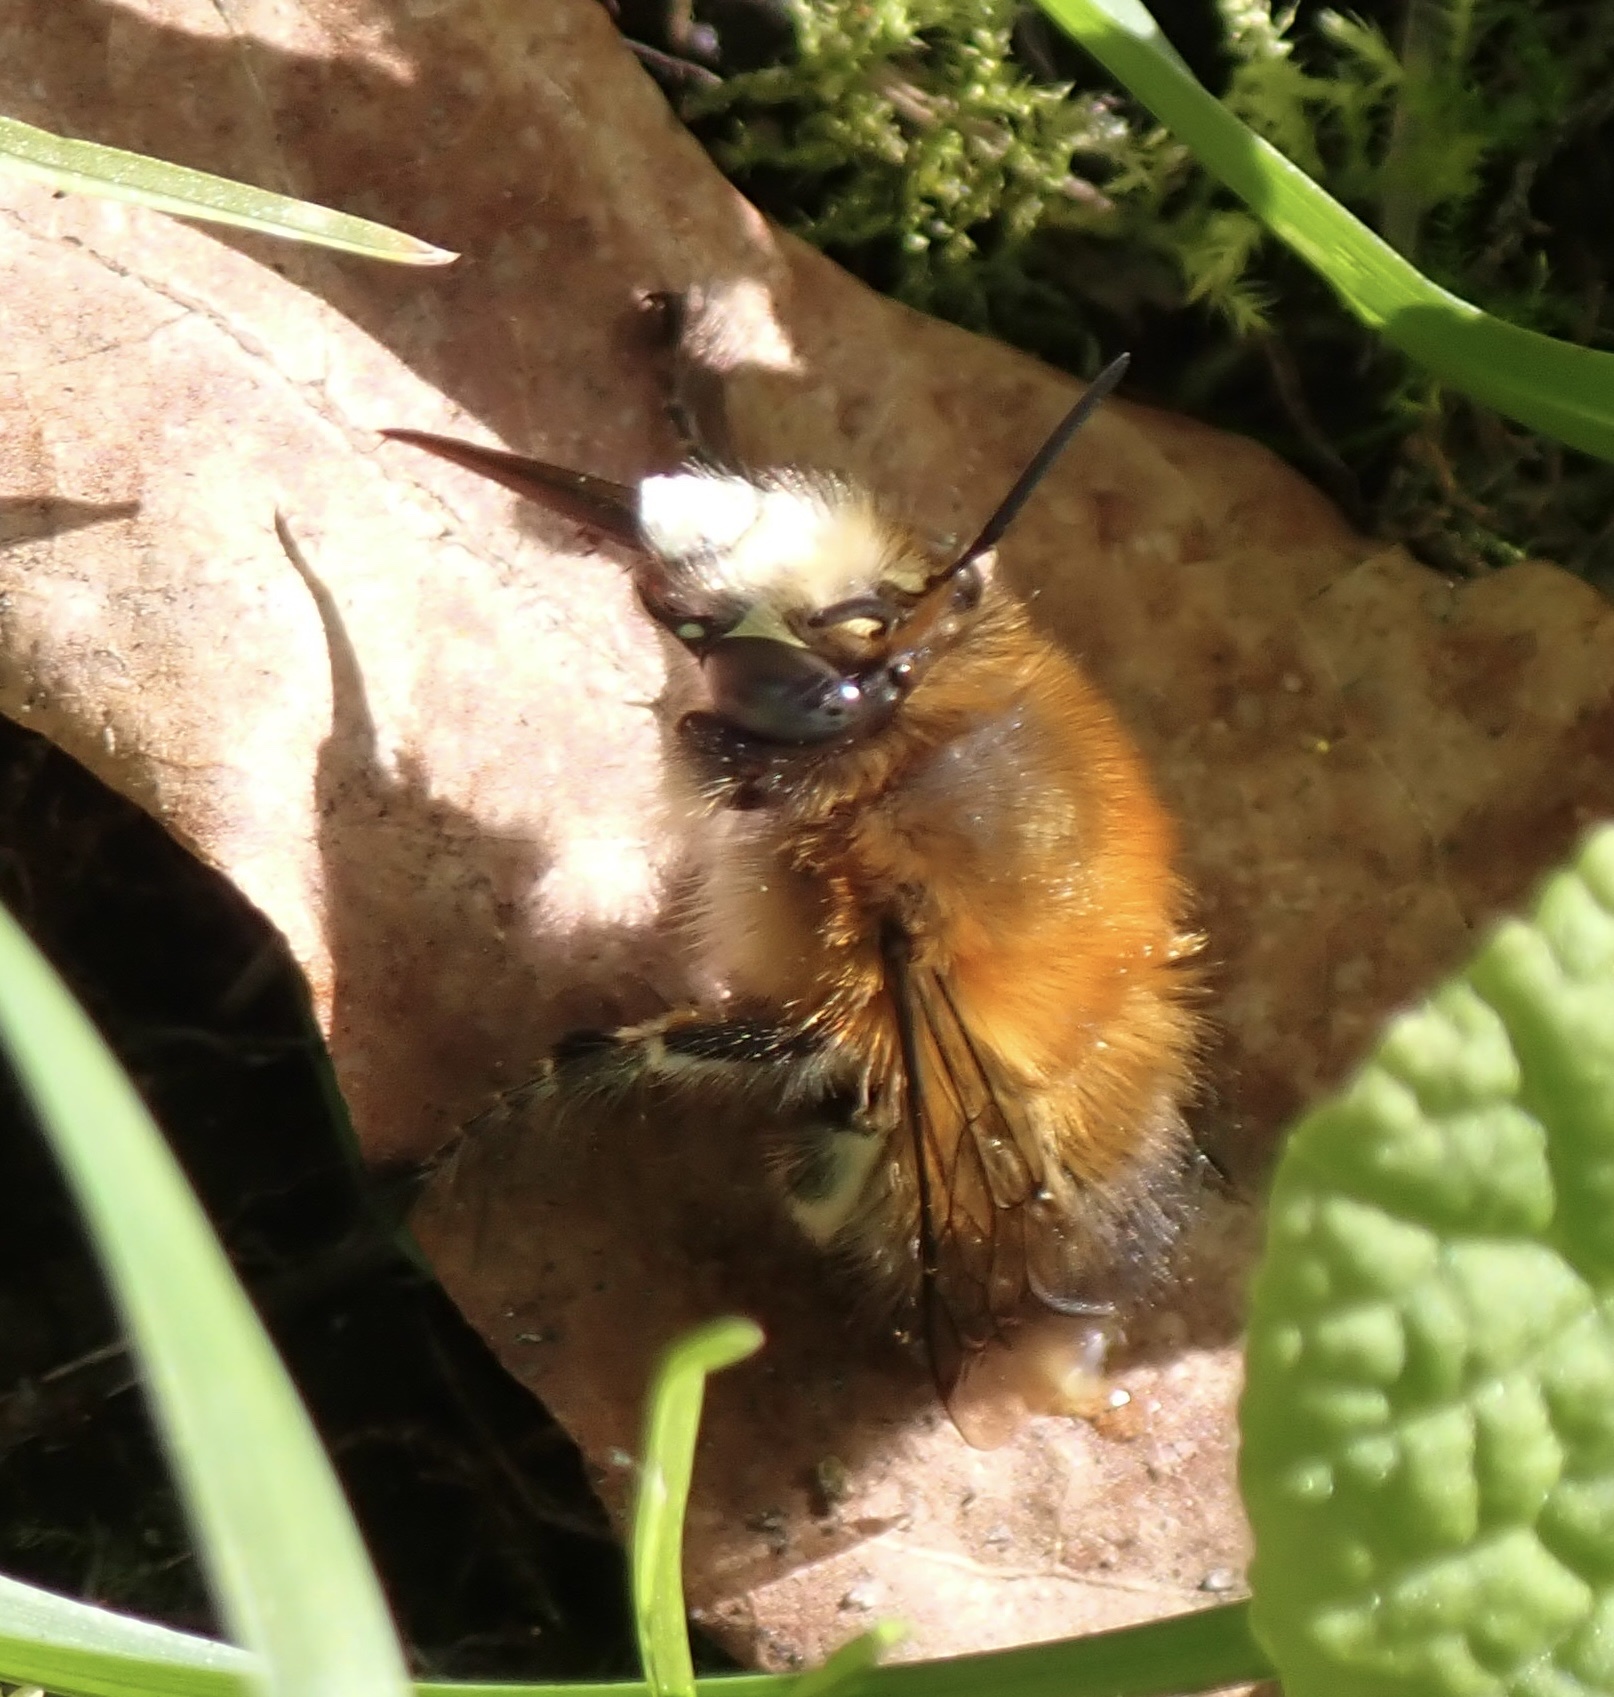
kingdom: Animalia
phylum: Arthropoda
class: Insecta
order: Hymenoptera
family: Apidae
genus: Anthophora
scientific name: Anthophora plumipes
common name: Hairy-footed flower bee
